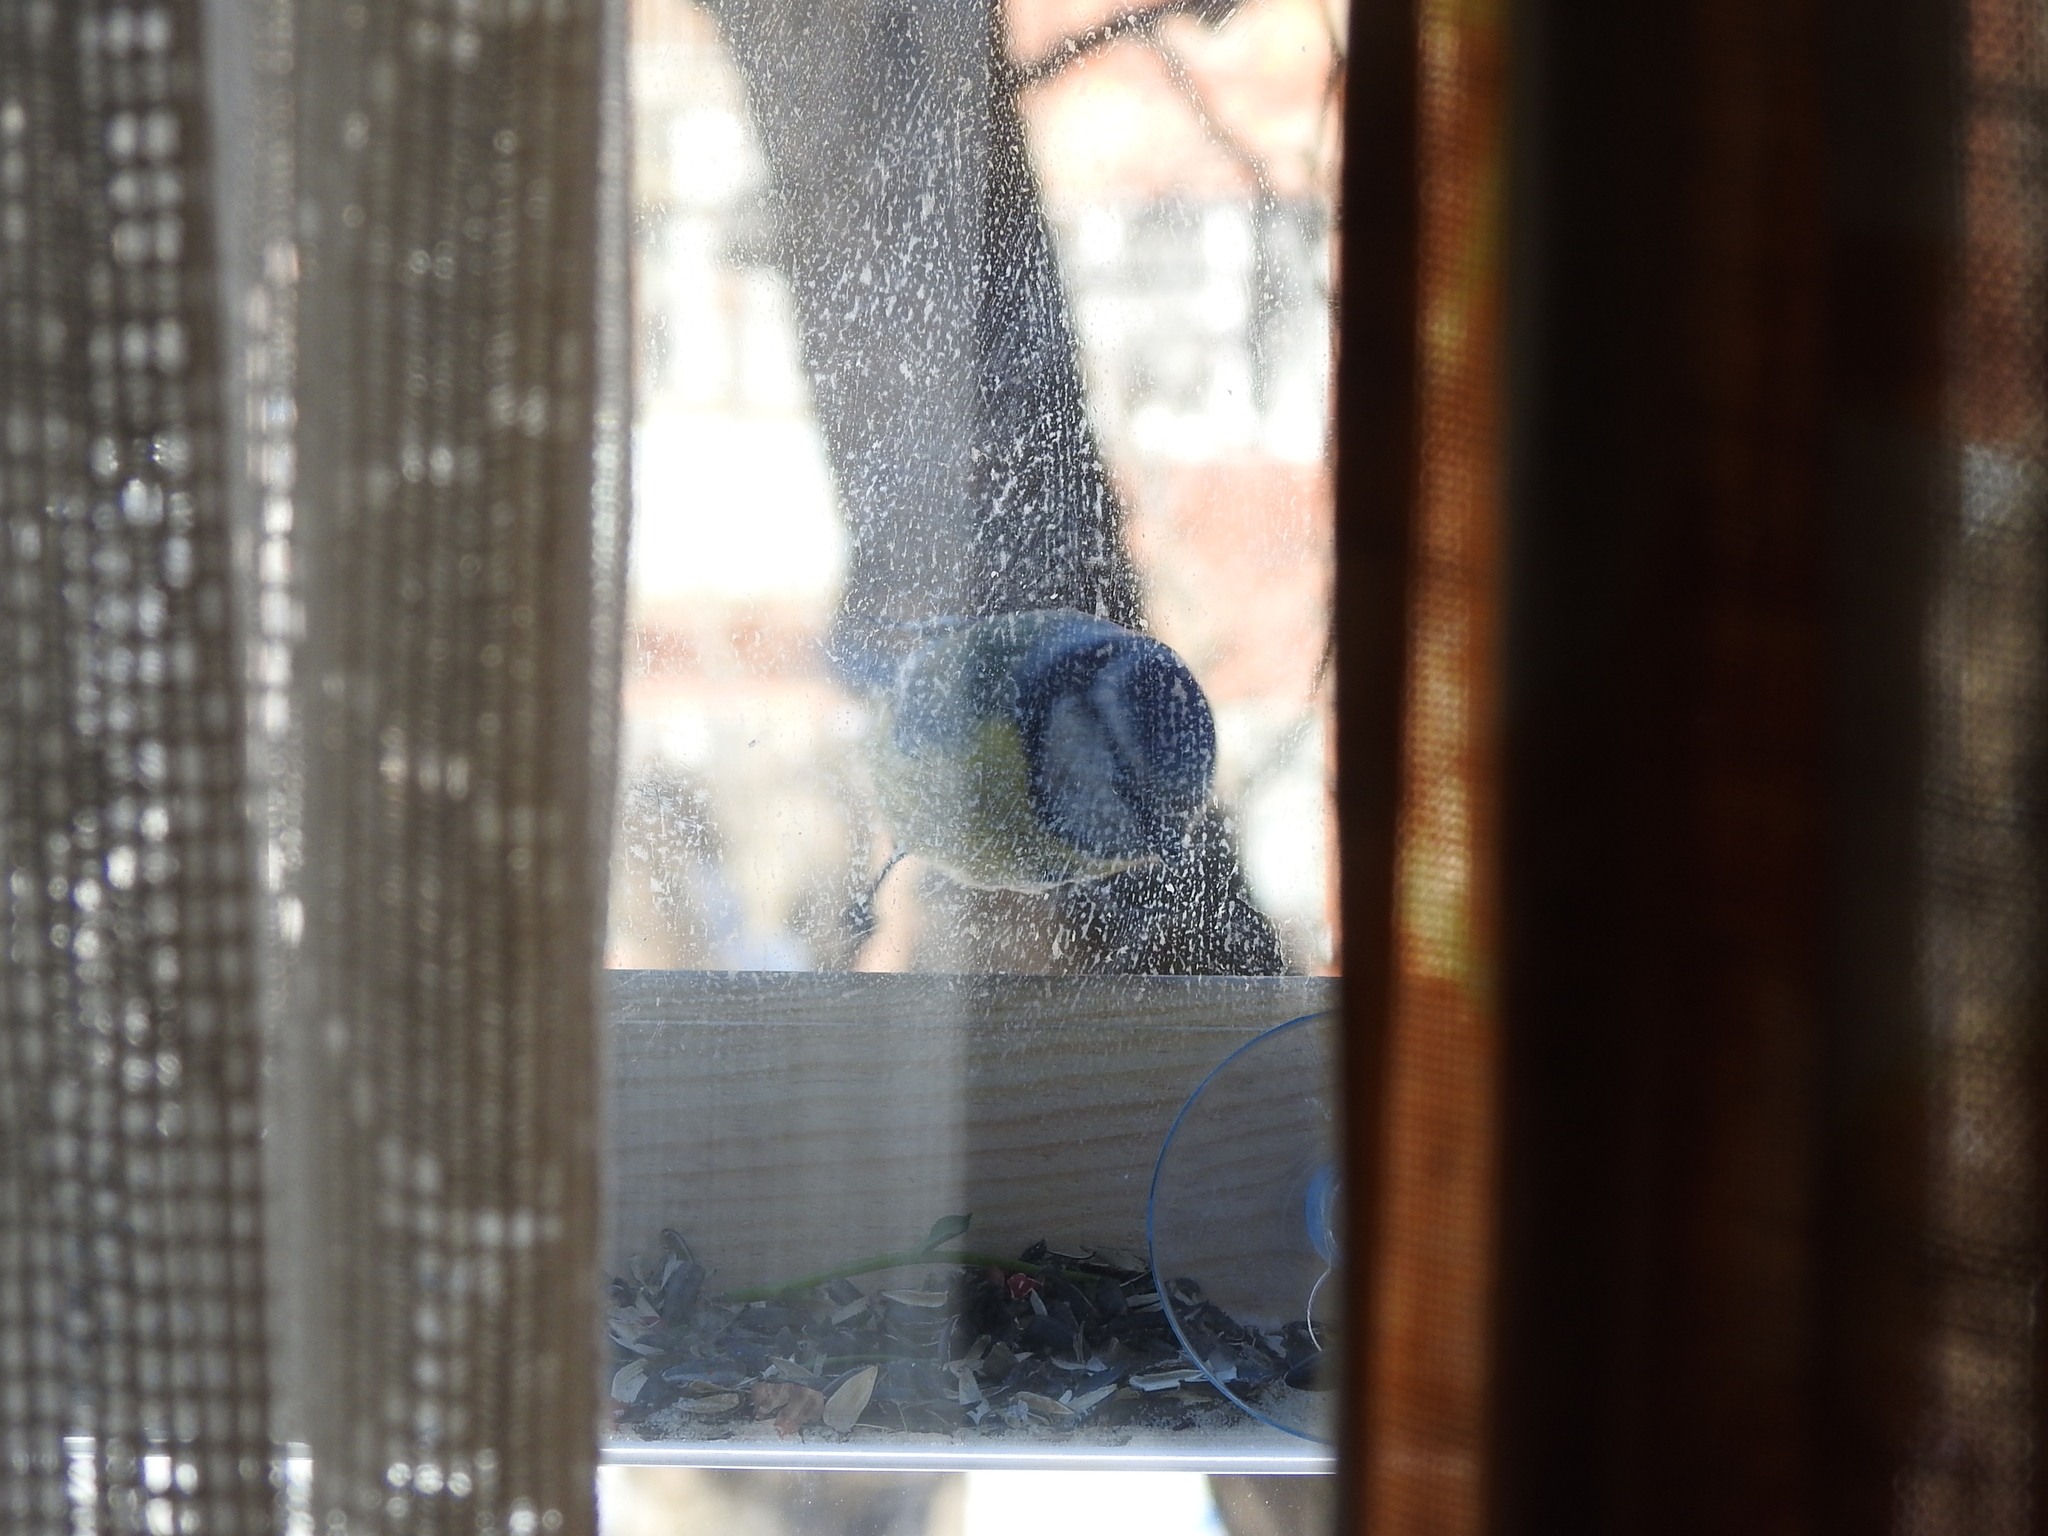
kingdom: Animalia
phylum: Chordata
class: Aves
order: Passeriformes
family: Paridae
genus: Cyanistes
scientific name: Cyanistes caeruleus
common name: Eurasian blue tit
